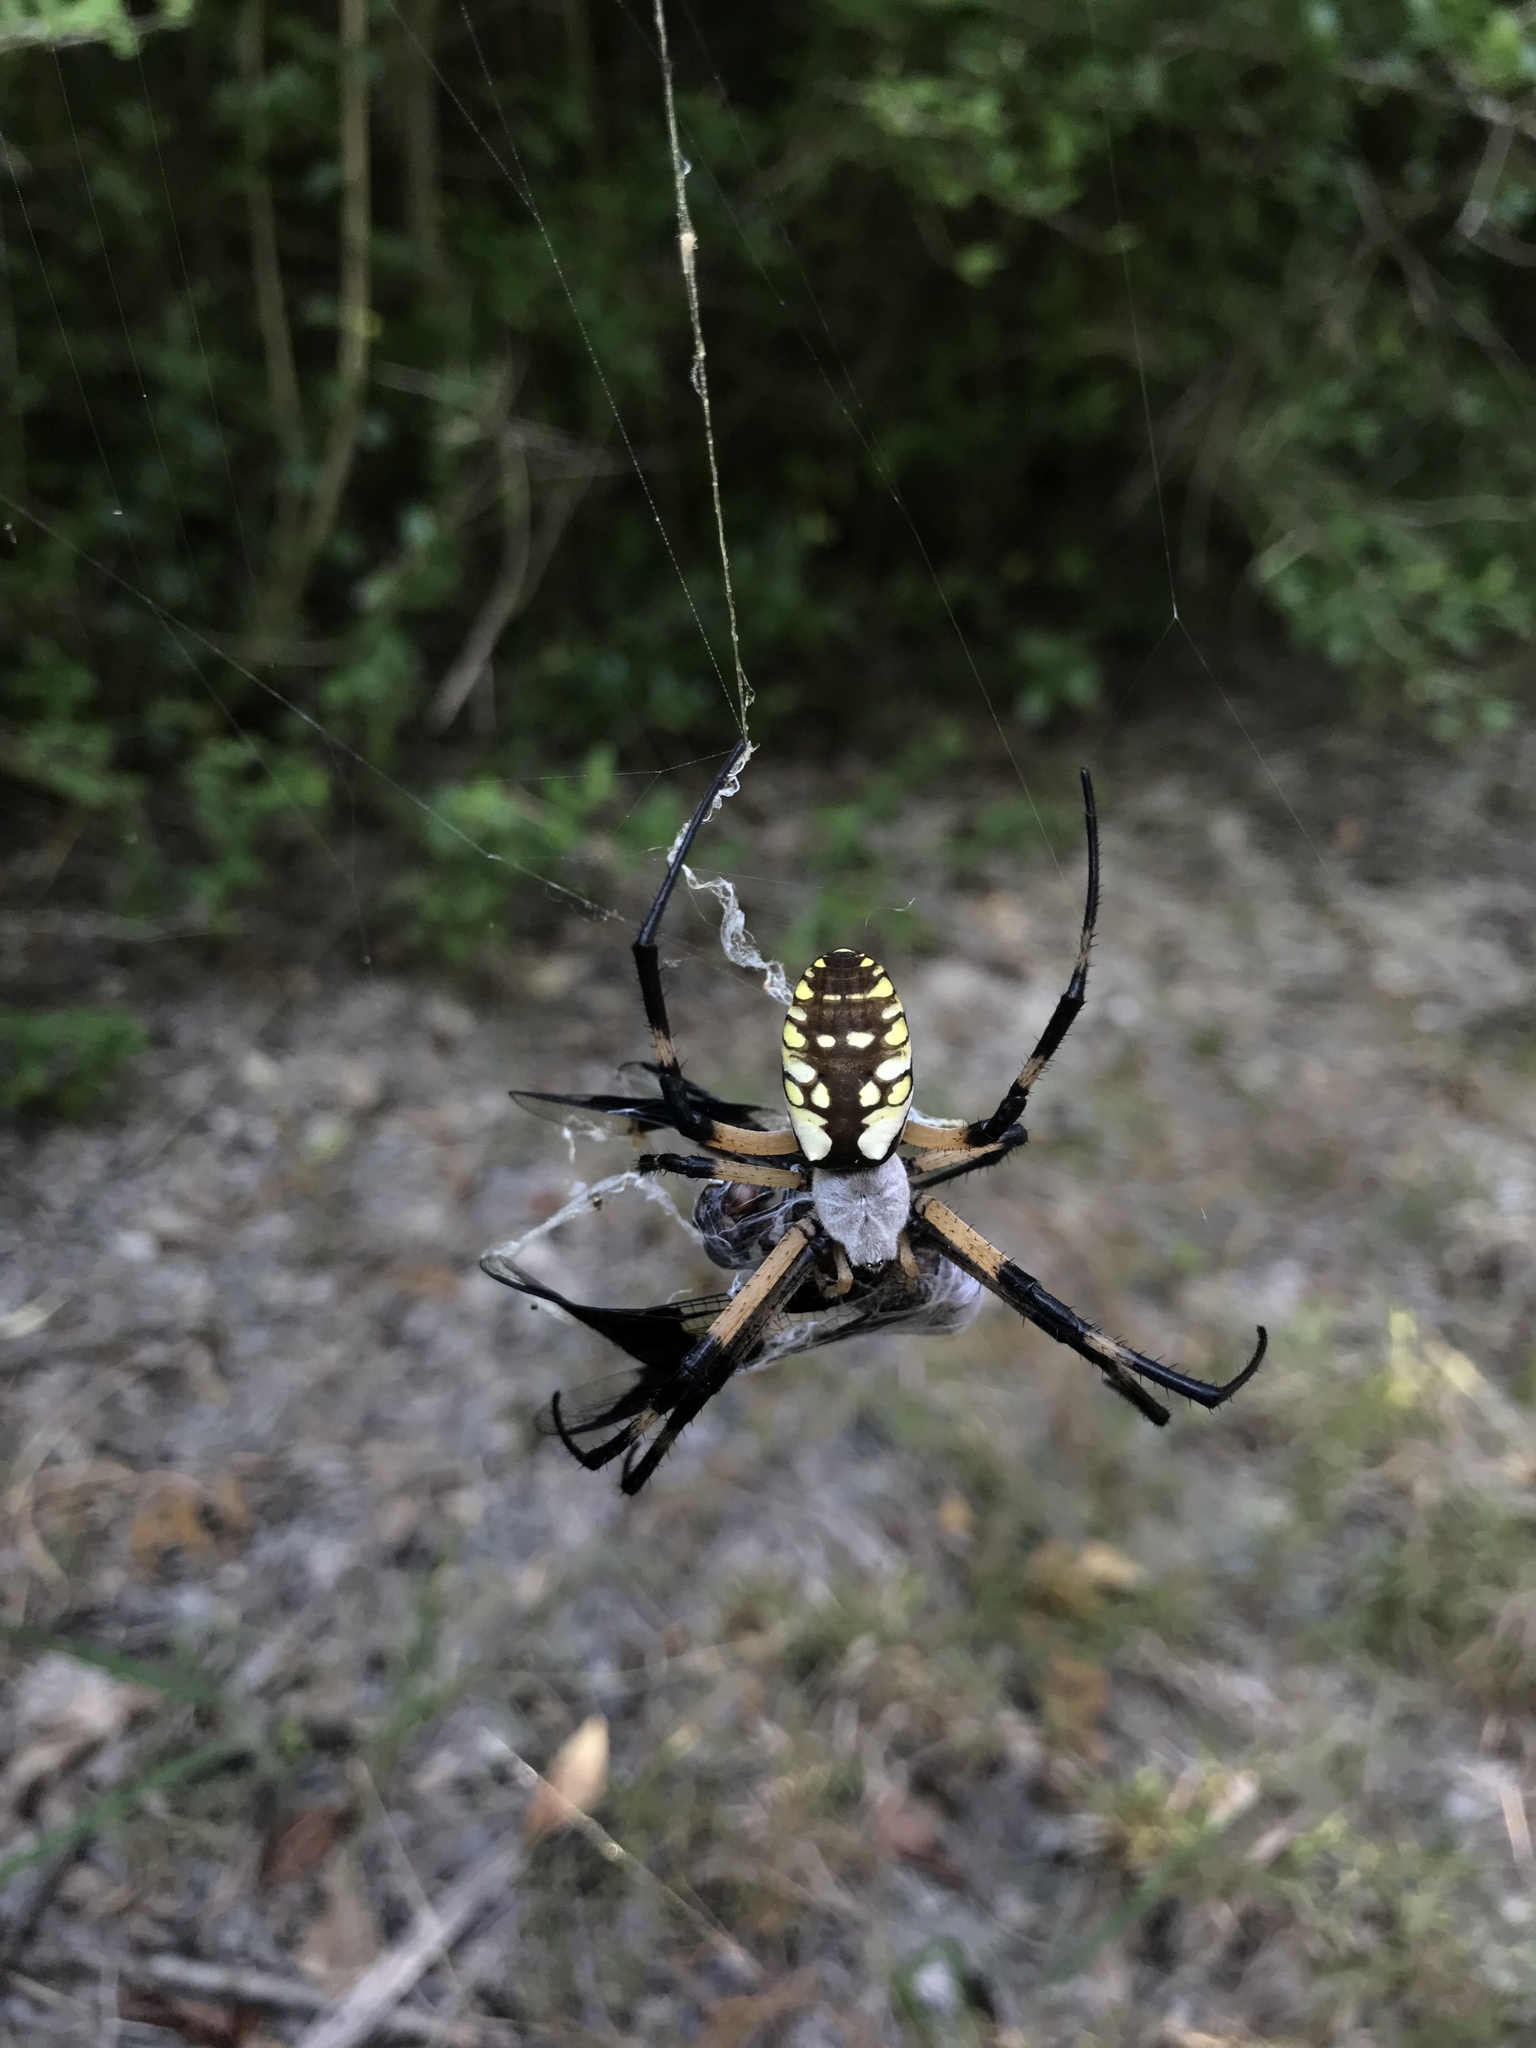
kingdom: Animalia
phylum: Arthropoda
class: Arachnida
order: Araneae
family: Araneidae
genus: Argiope
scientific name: Argiope aurantia
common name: Orb weavers
